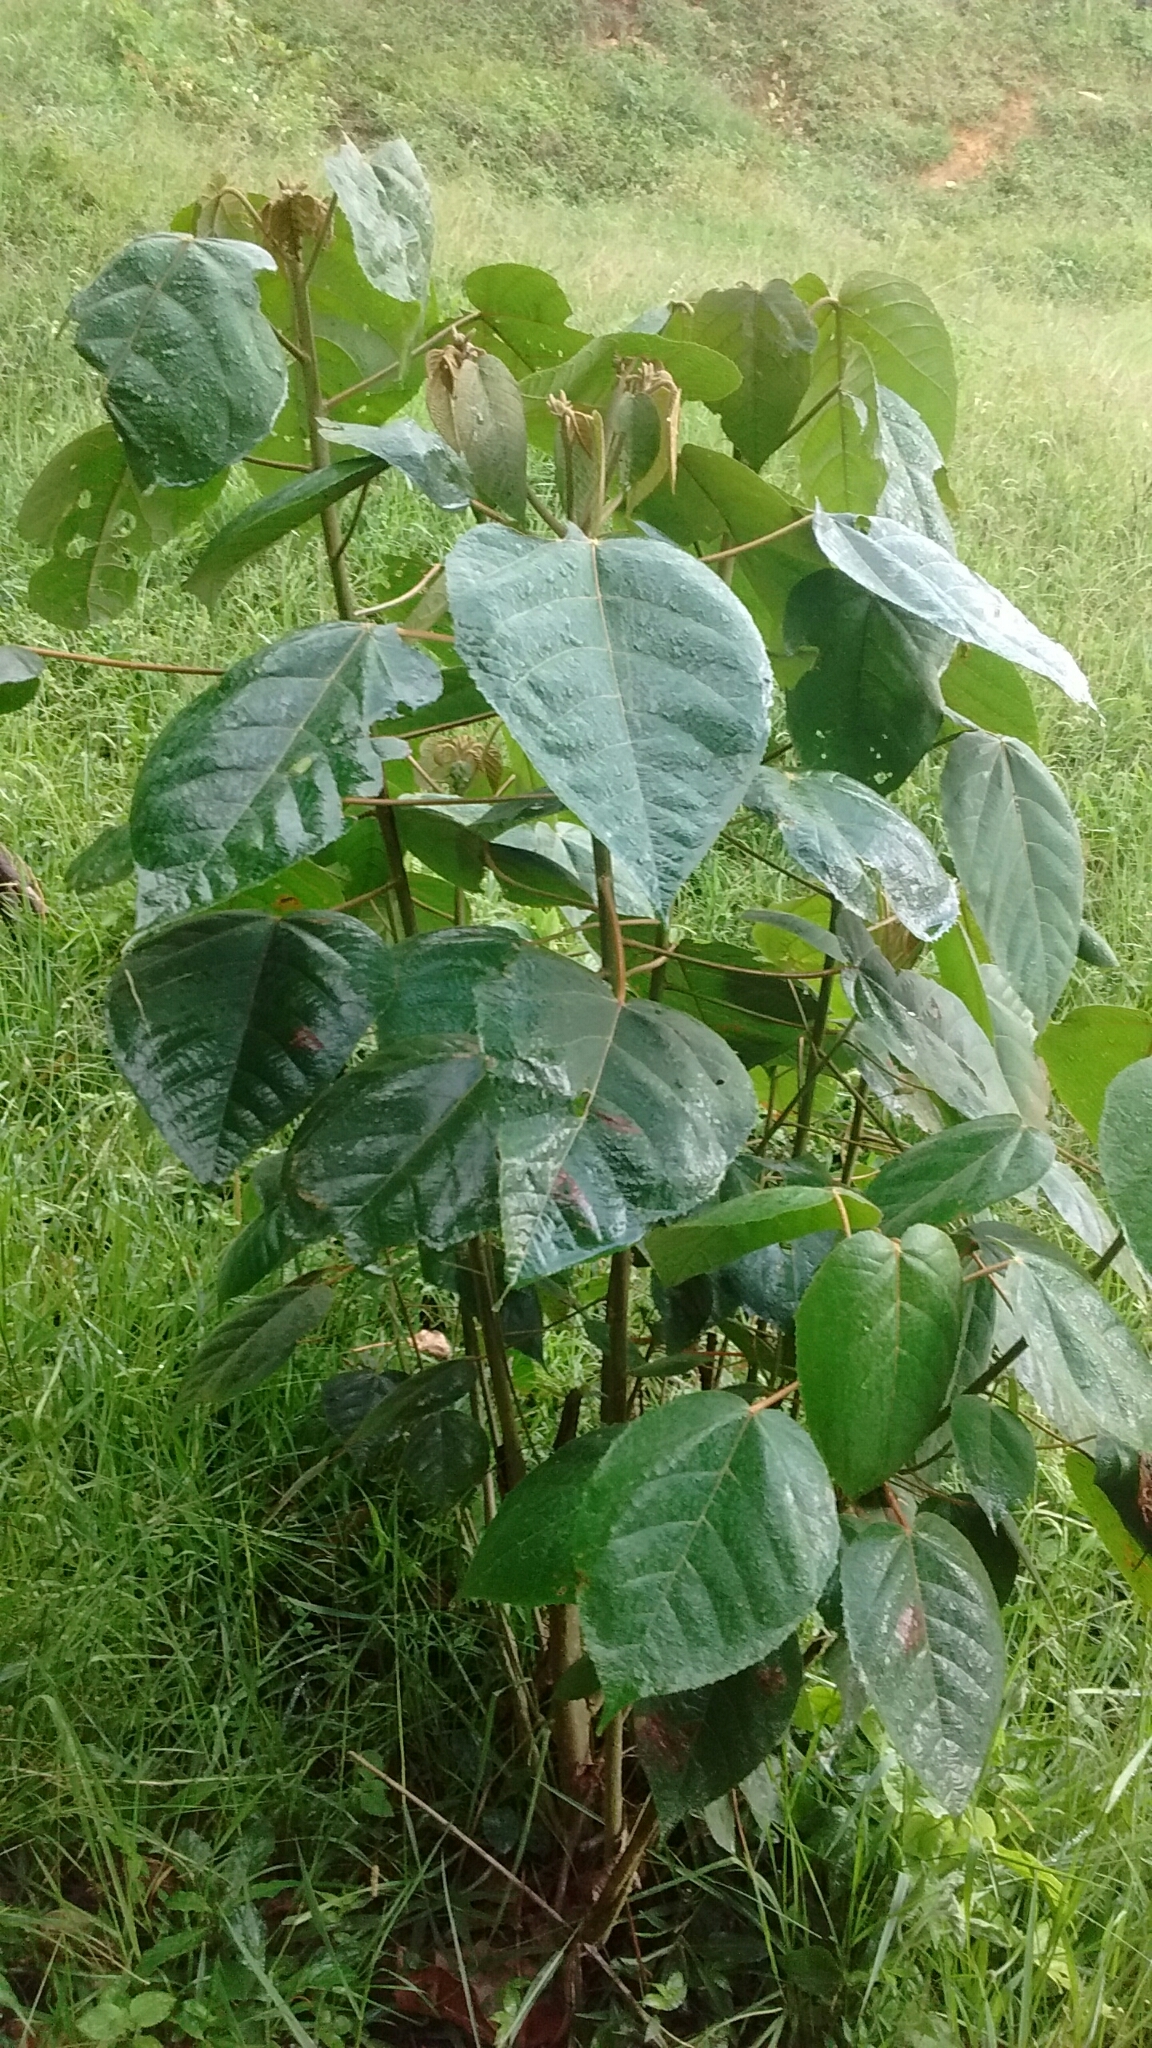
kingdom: Plantae
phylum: Tracheophyta
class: Magnoliopsida
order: Malpighiales
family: Euphorbiaceae
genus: Croton
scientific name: Croton mutisianus
